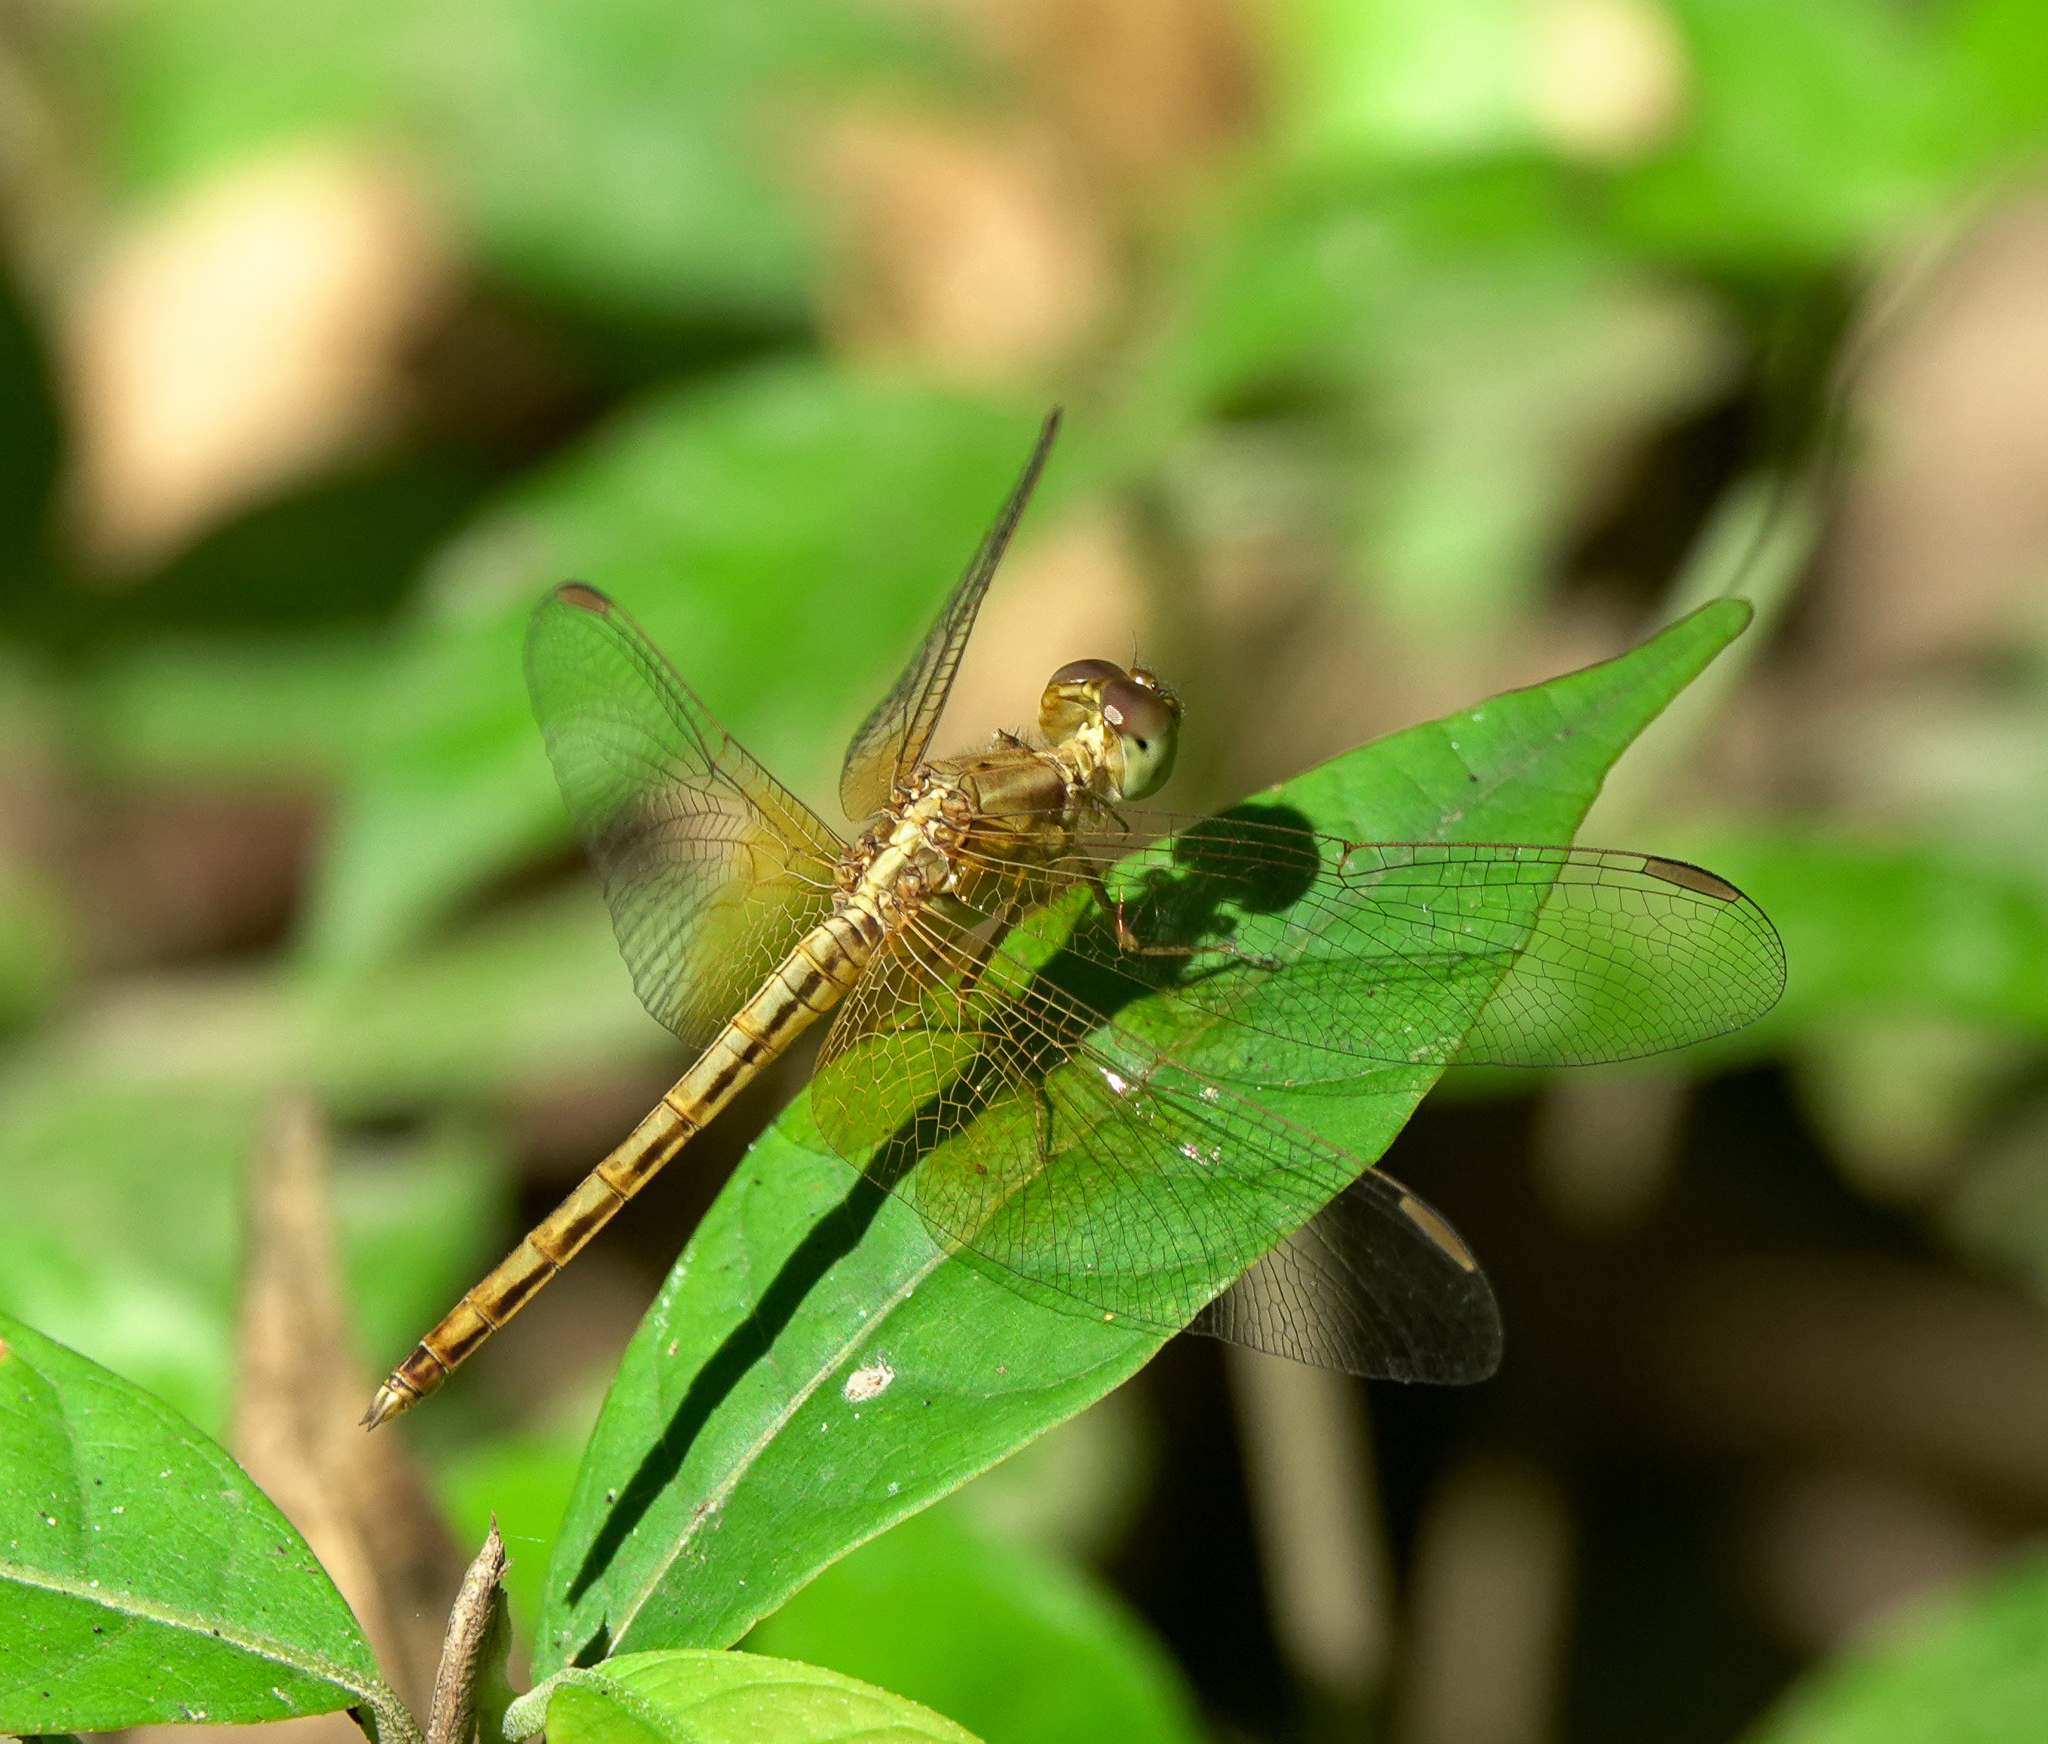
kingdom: Animalia
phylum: Arthropoda
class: Insecta
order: Odonata
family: Libellulidae
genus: Neurothemis
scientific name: Neurothemis intermedia
